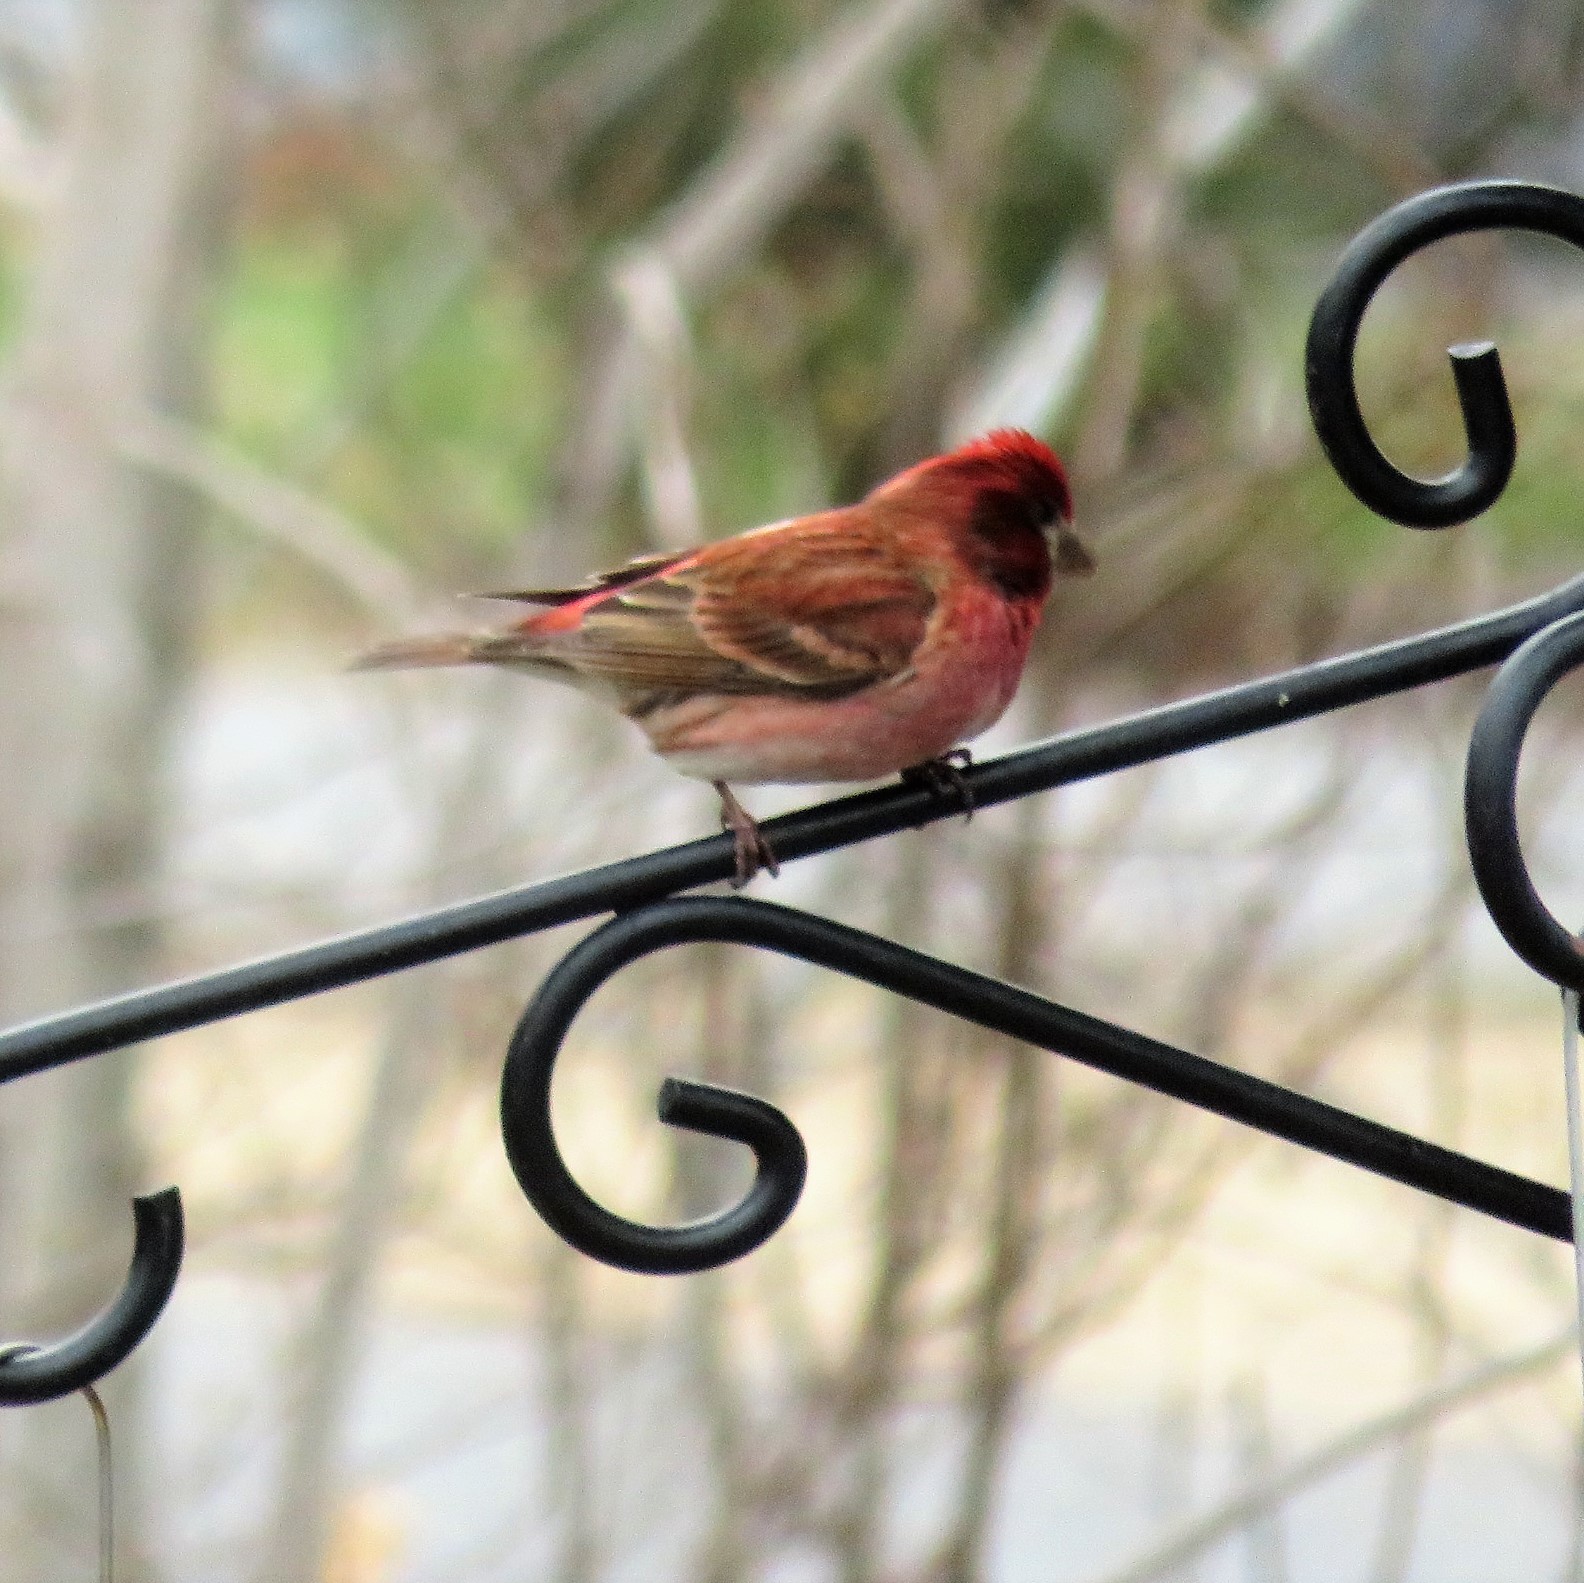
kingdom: Animalia
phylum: Chordata
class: Aves
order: Passeriformes
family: Fringillidae
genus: Haemorhous
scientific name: Haemorhous purpureus
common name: Purple finch
